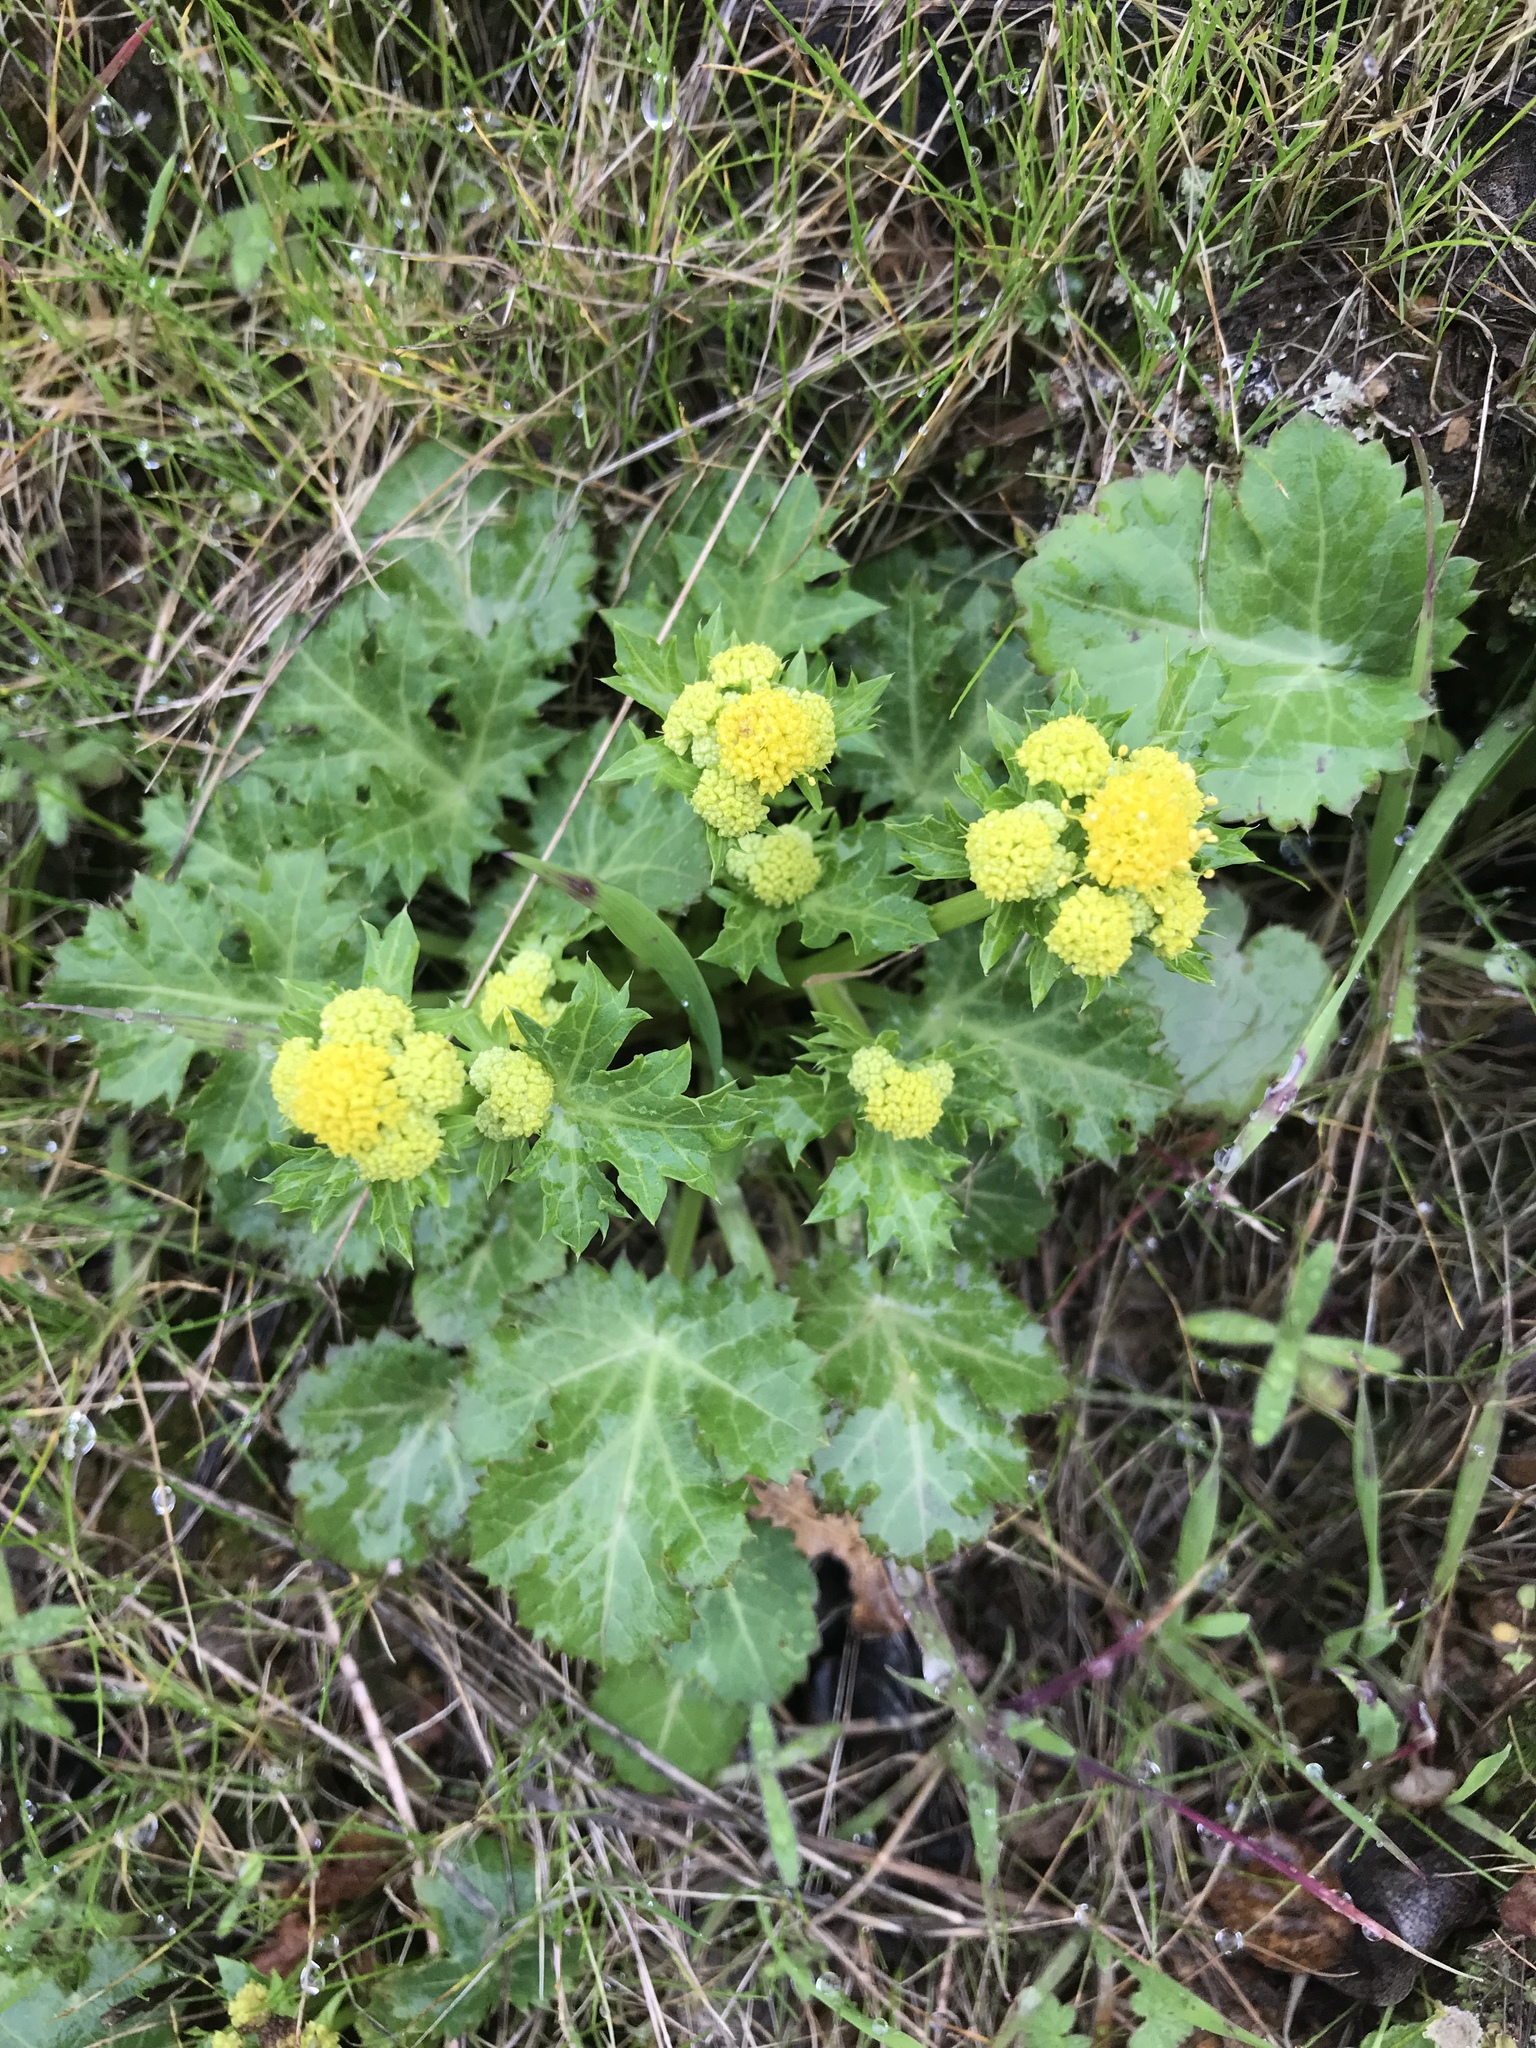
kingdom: Plantae
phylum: Tracheophyta
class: Magnoliopsida
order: Apiales
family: Apiaceae
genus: Sanicula
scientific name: Sanicula crassicaulis
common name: Western snakeroot
